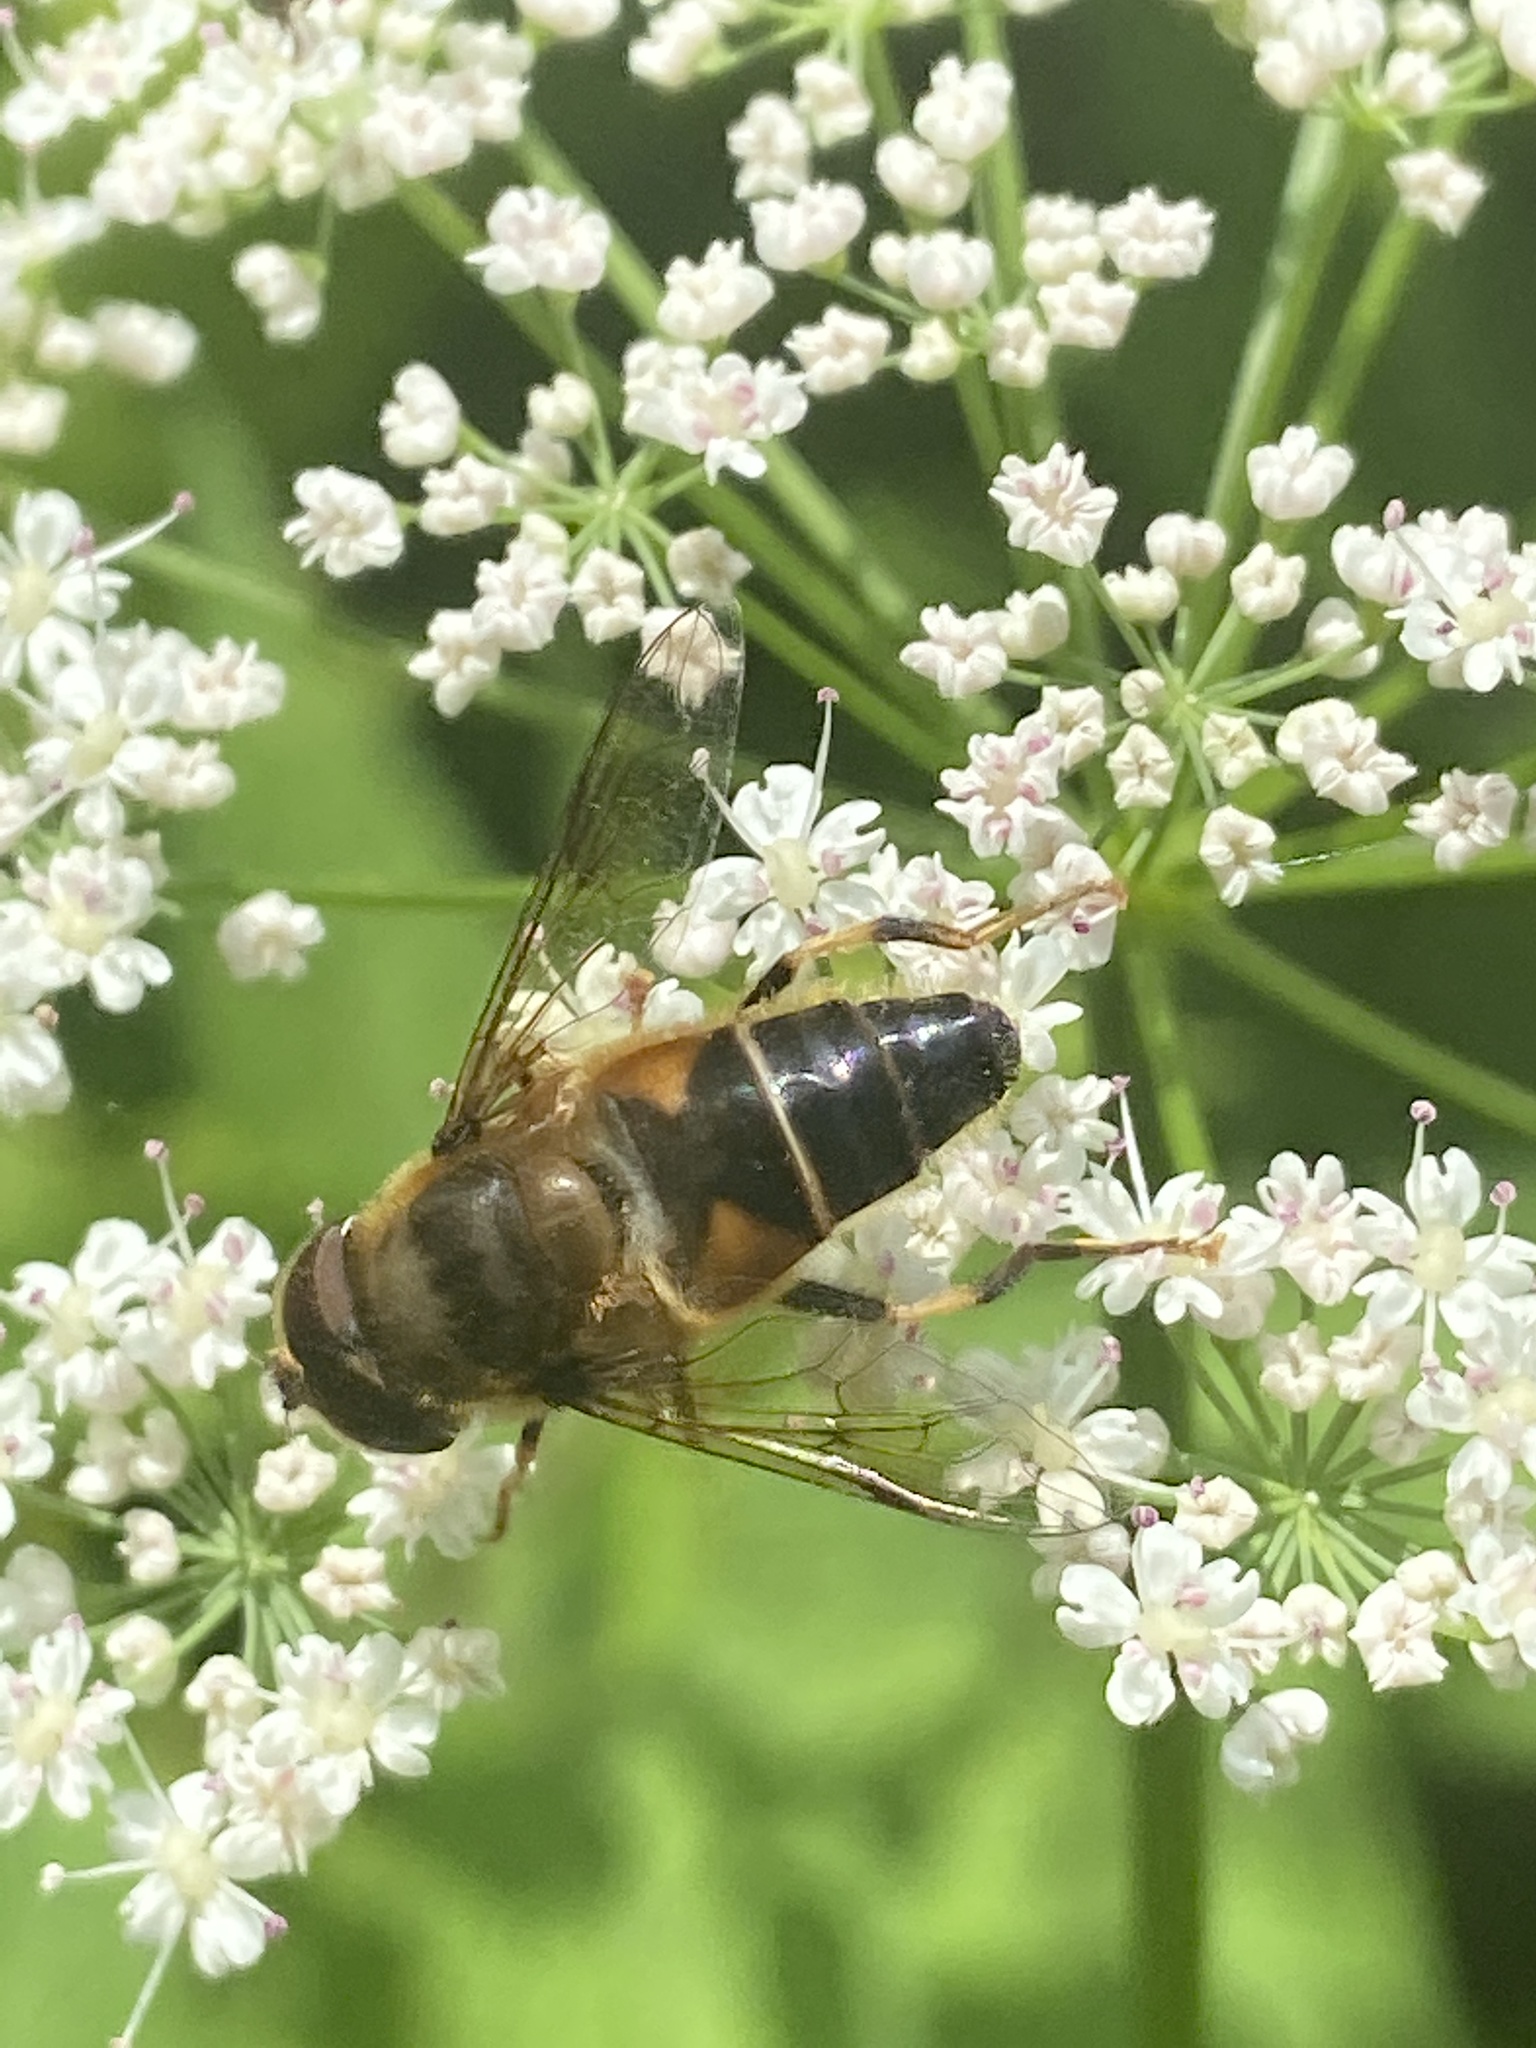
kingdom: Animalia
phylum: Arthropoda
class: Insecta
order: Diptera
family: Syrphidae
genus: Eristalis
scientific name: Eristalis pertinax
